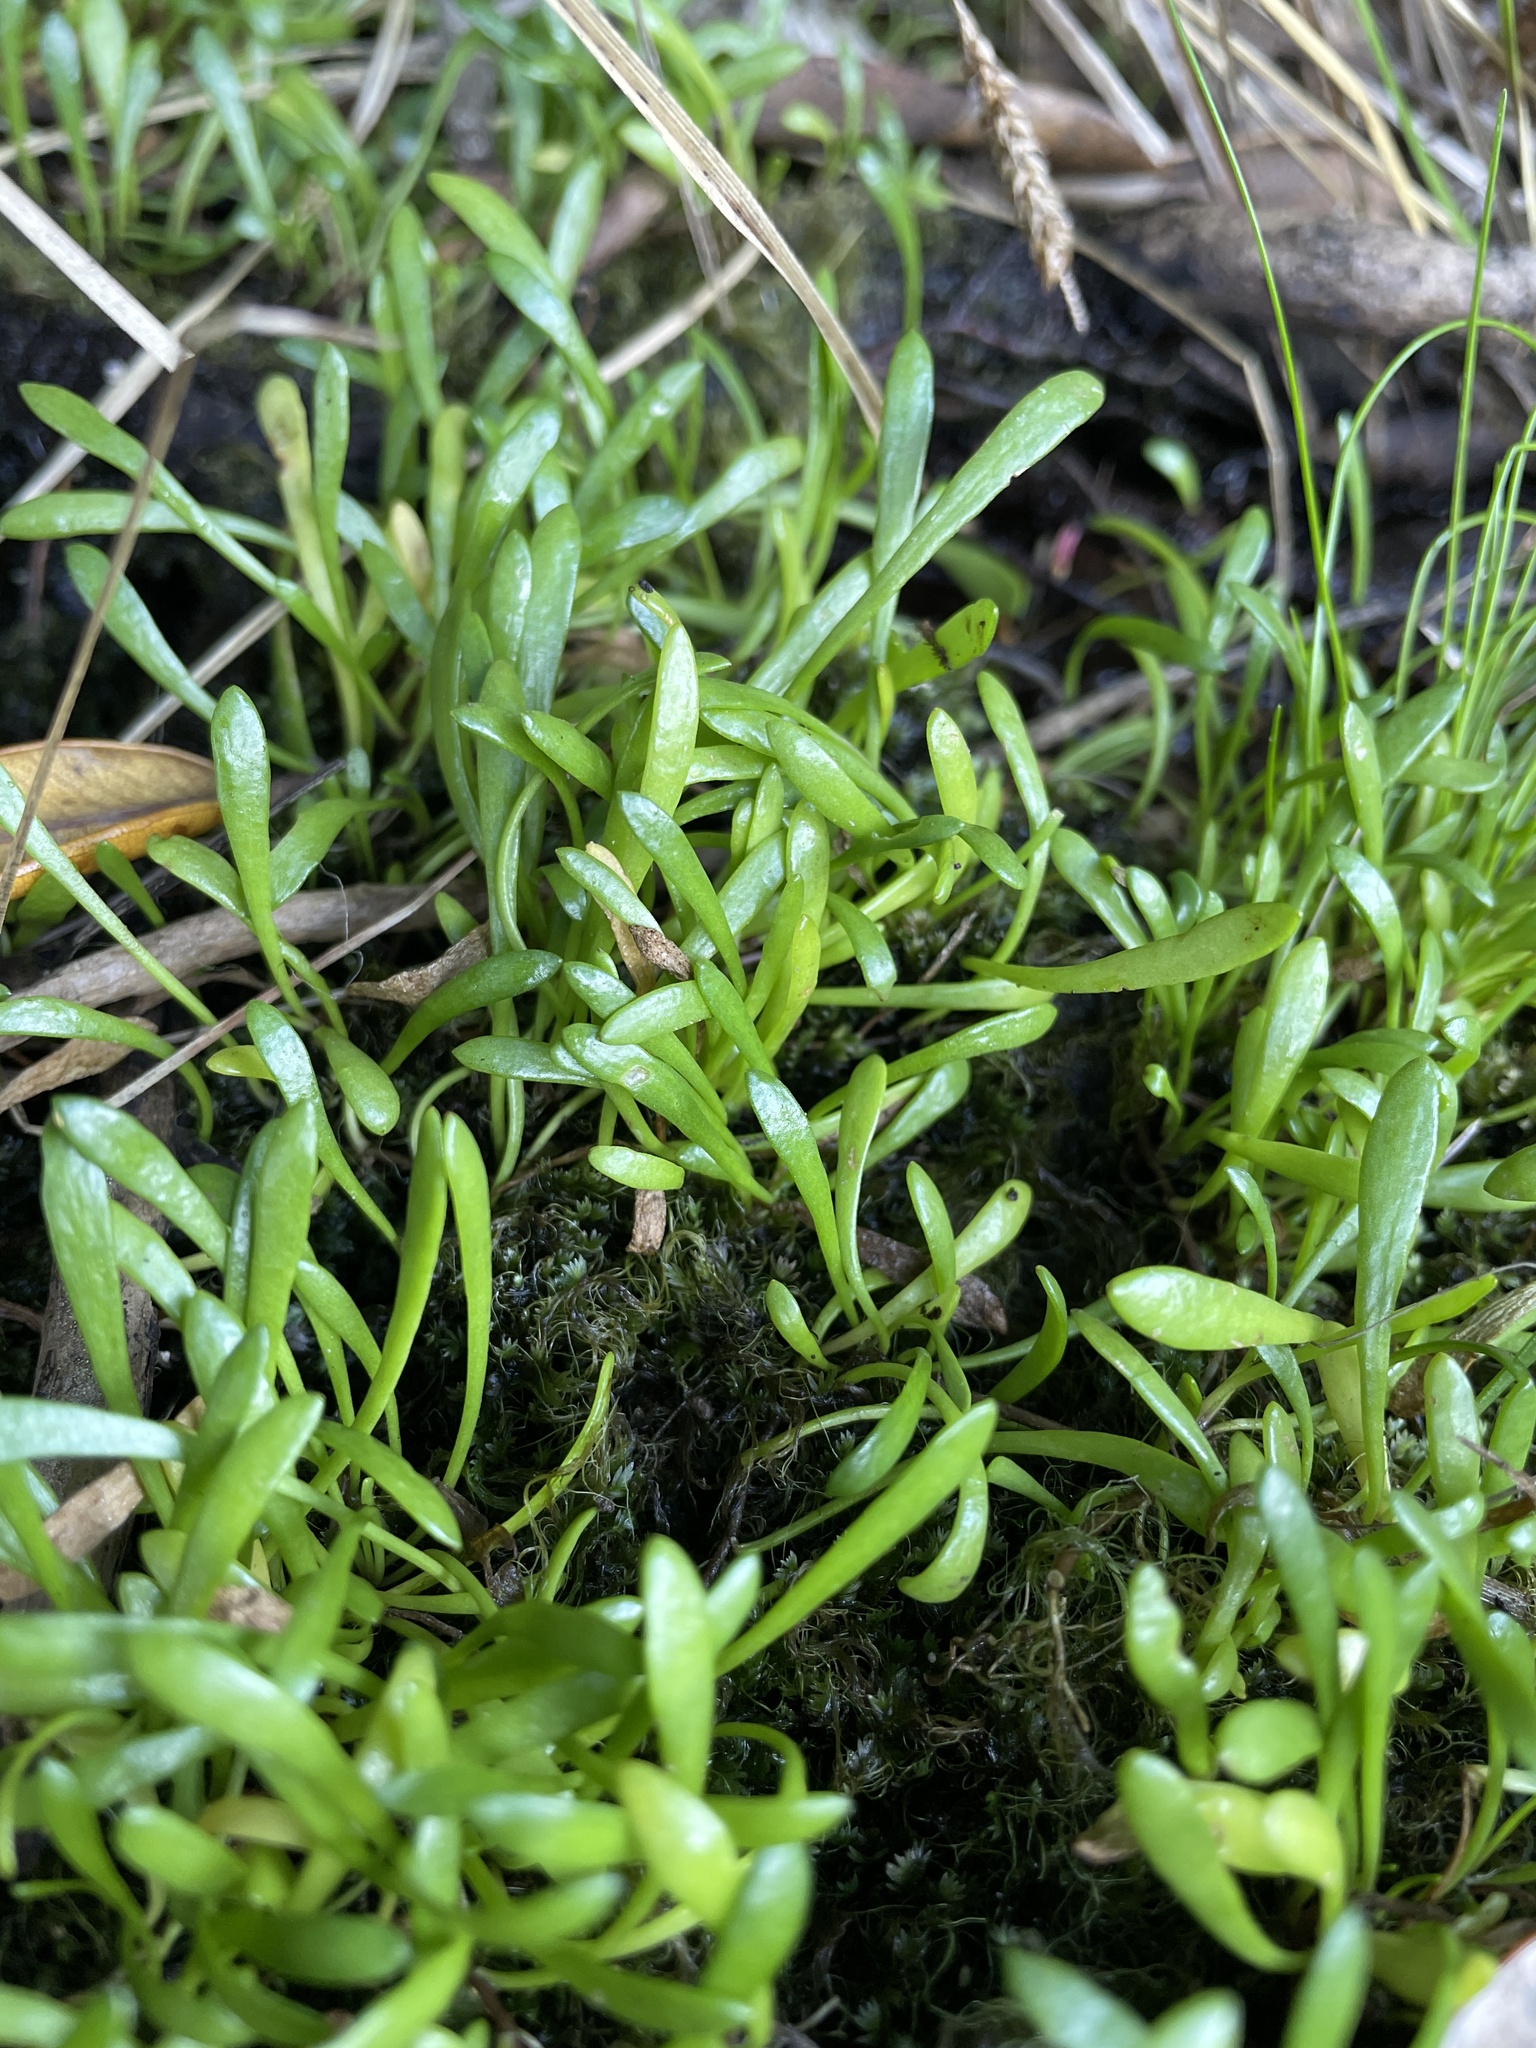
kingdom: Plantae
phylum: Tracheophyta
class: Magnoliopsida
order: Asterales
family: Goodeniaceae
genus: Goodenia
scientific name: Goodenia radicans
